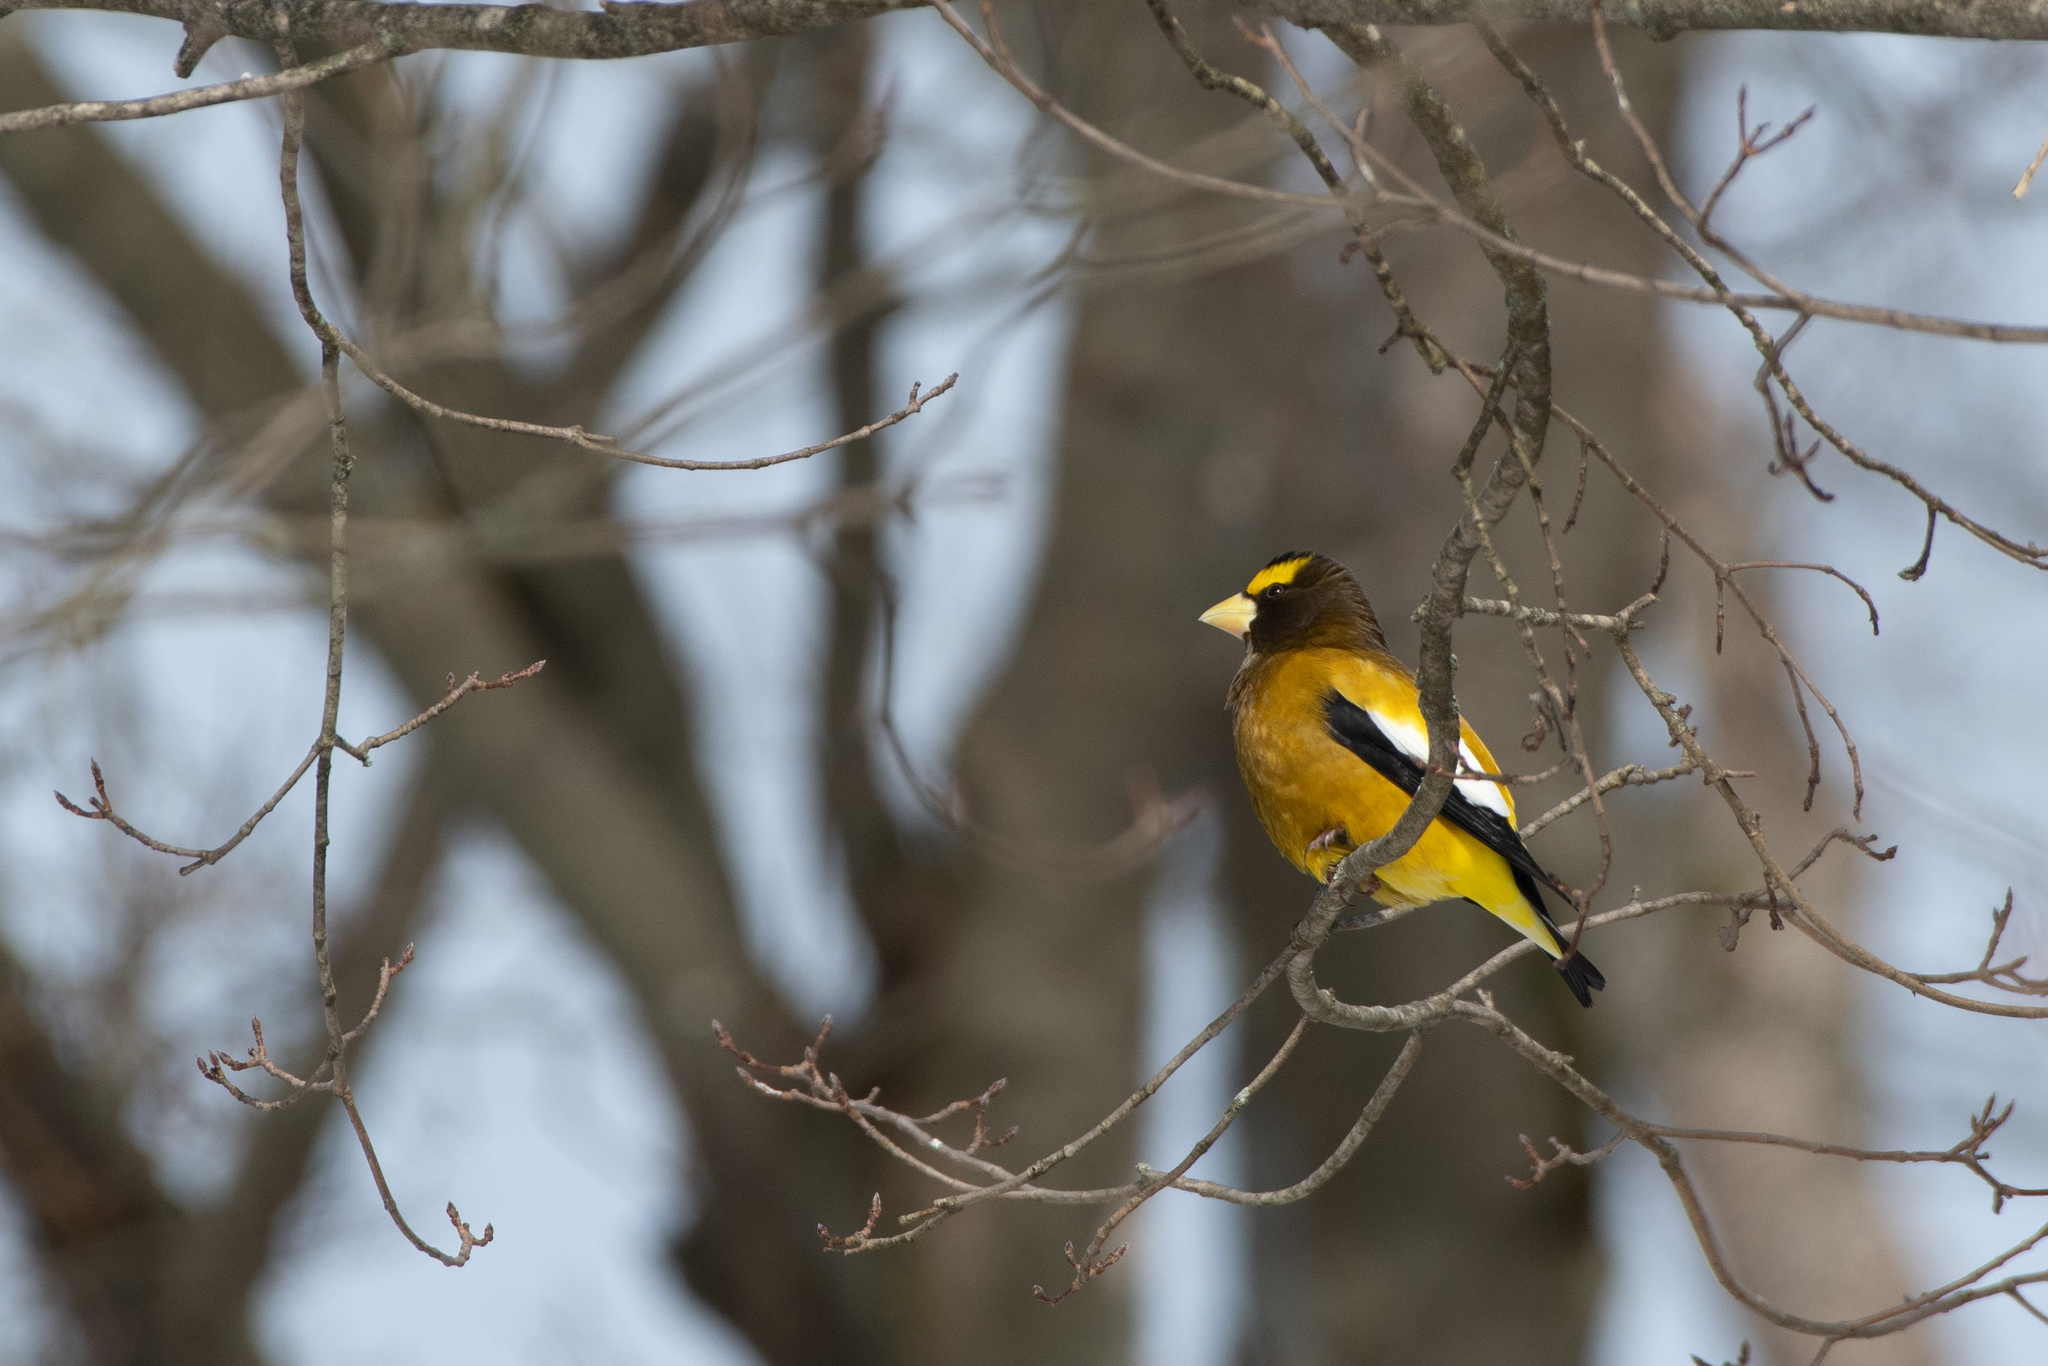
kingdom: Animalia
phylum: Chordata
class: Aves
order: Passeriformes
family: Fringillidae
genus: Hesperiphona
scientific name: Hesperiphona vespertina
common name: Evening grosbeak
